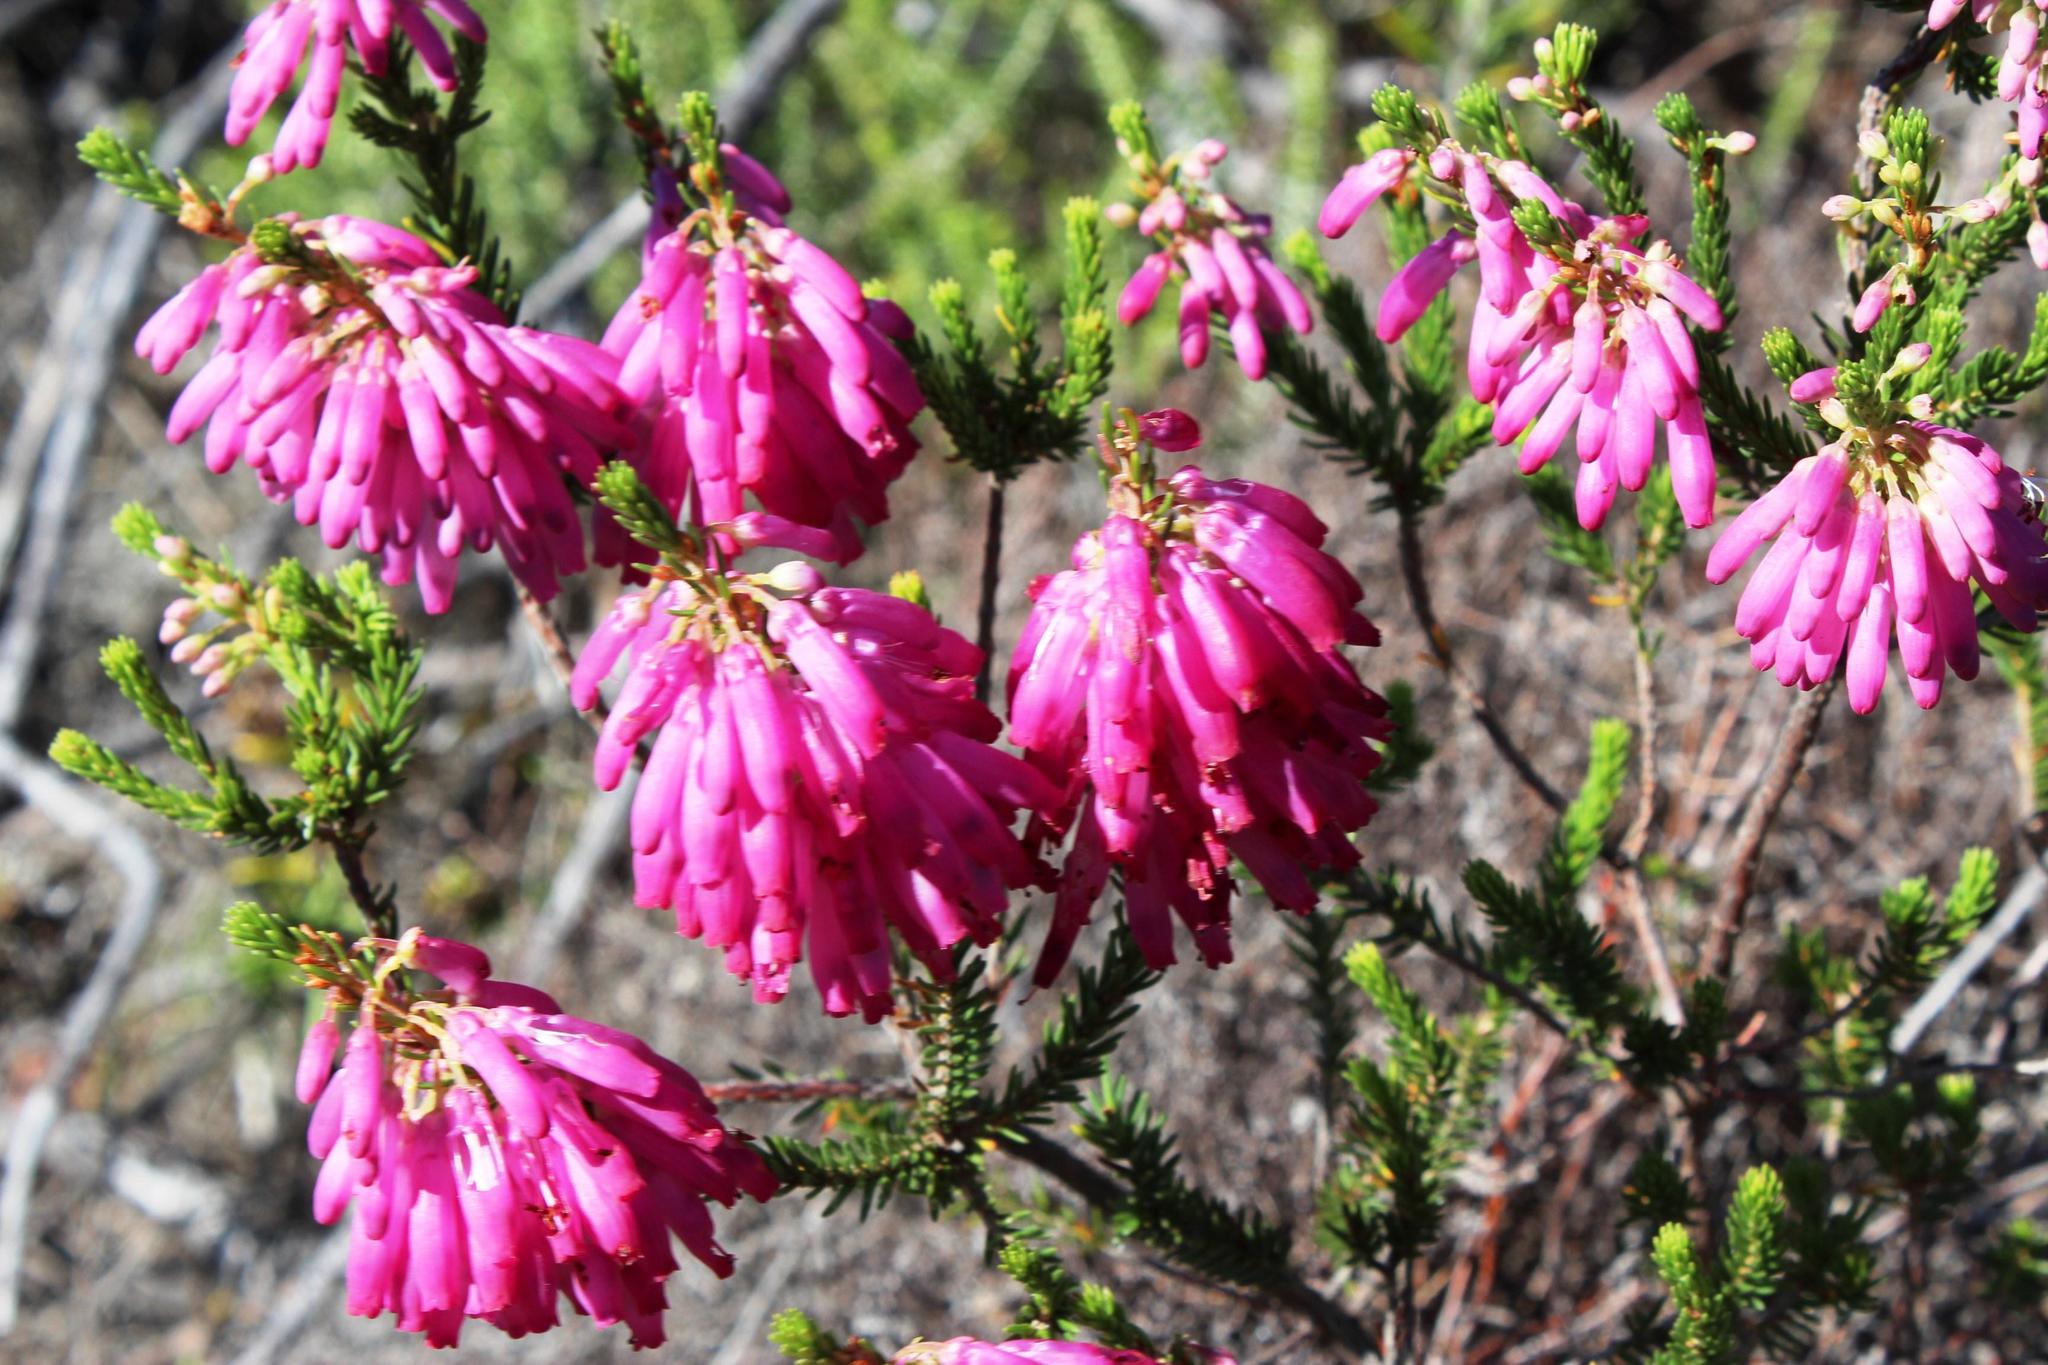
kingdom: Plantae
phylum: Tracheophyta
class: Magnoliopsida
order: Ericales
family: Ericaceae
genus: Erica
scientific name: Erica mammosa
